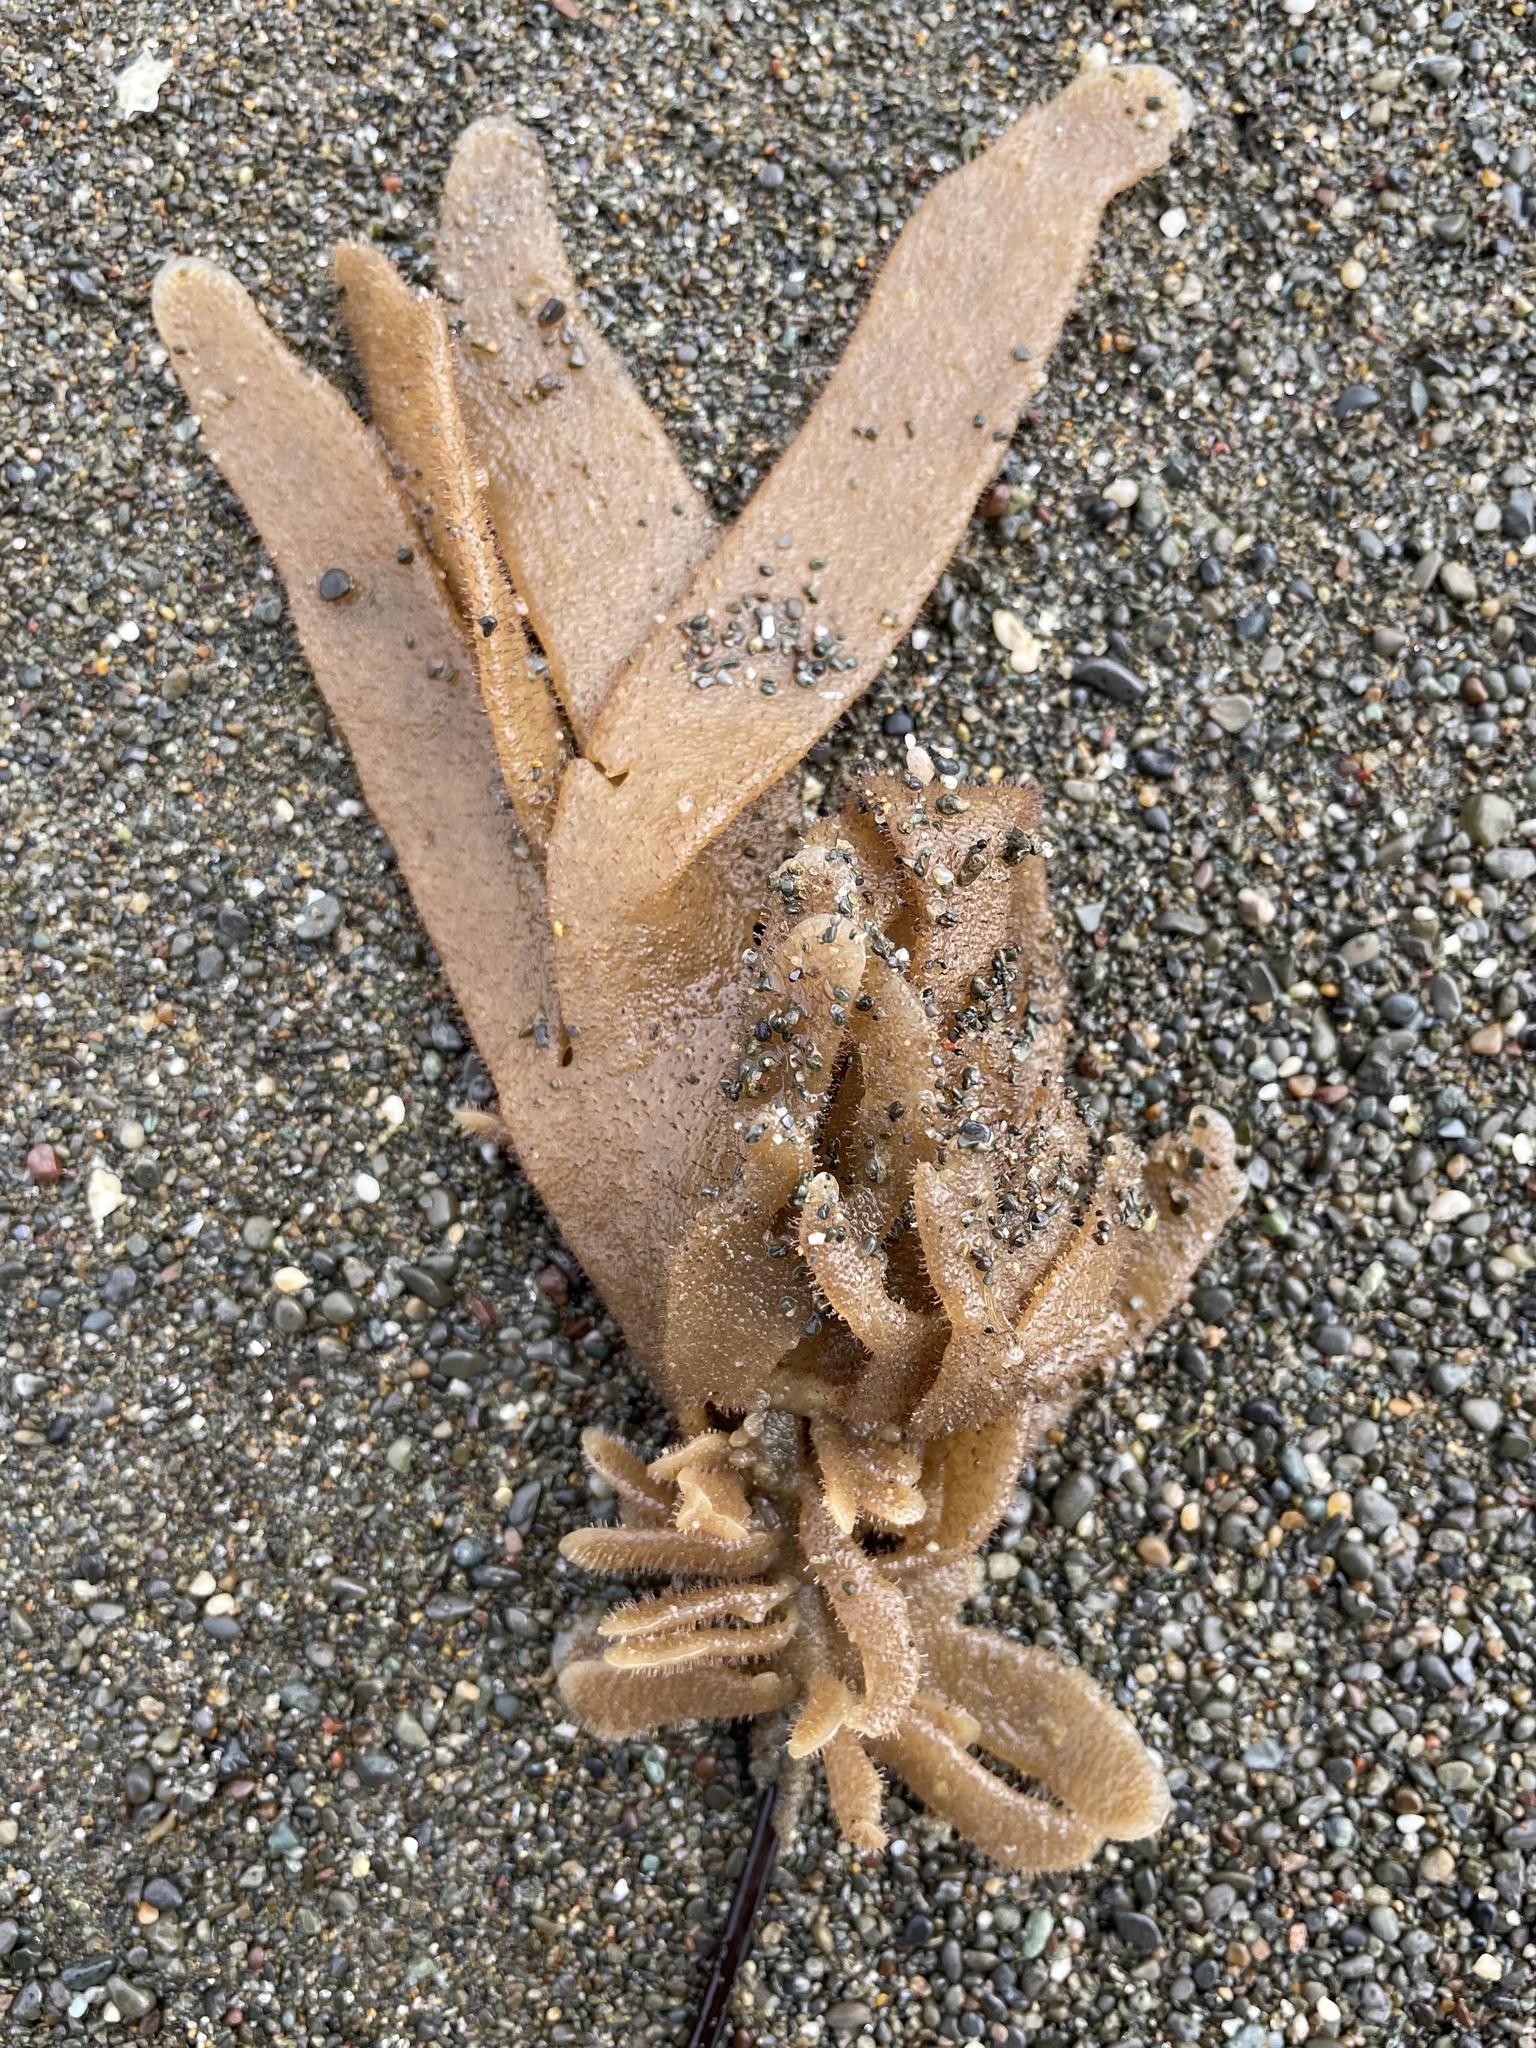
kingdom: Animalia
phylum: Bryozoa
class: Gymnolaemata
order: Ctenostomatida
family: Flustrellidridae
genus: Flustrellidra
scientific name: Flustrellidra corniculata
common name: Spiny leather bryozoan
